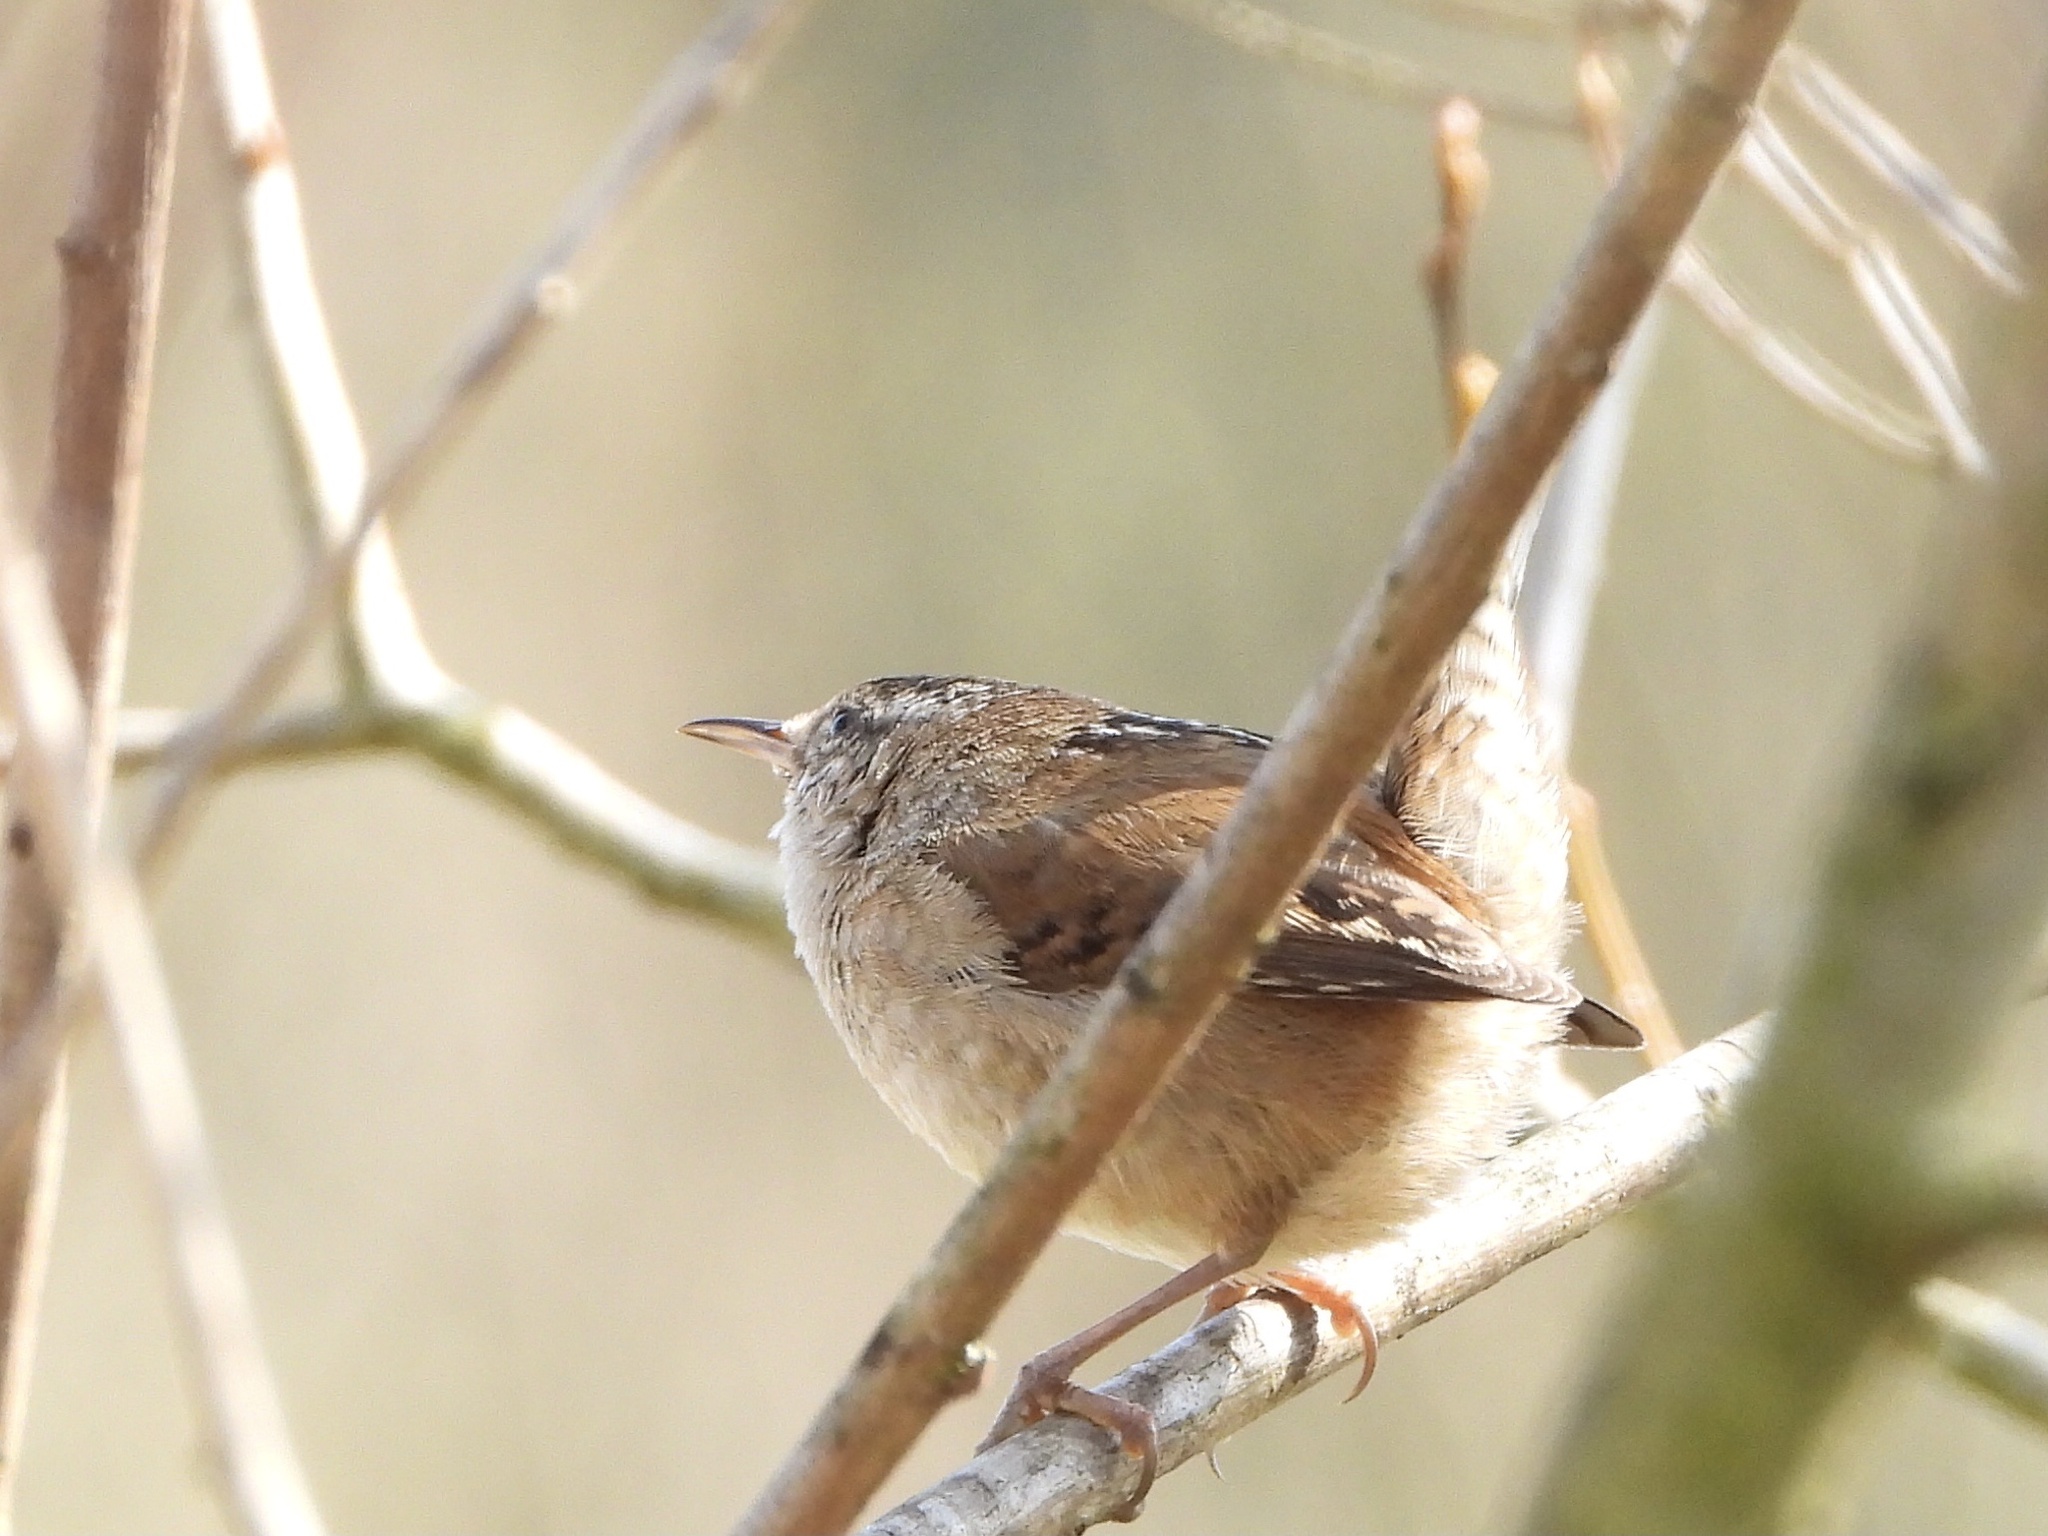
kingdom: Animalia
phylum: Chordata
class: Aves
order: Passeriformes
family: Troglodytidae
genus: Cistothorus
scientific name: Cistothorus palustris
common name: Marsh wren
